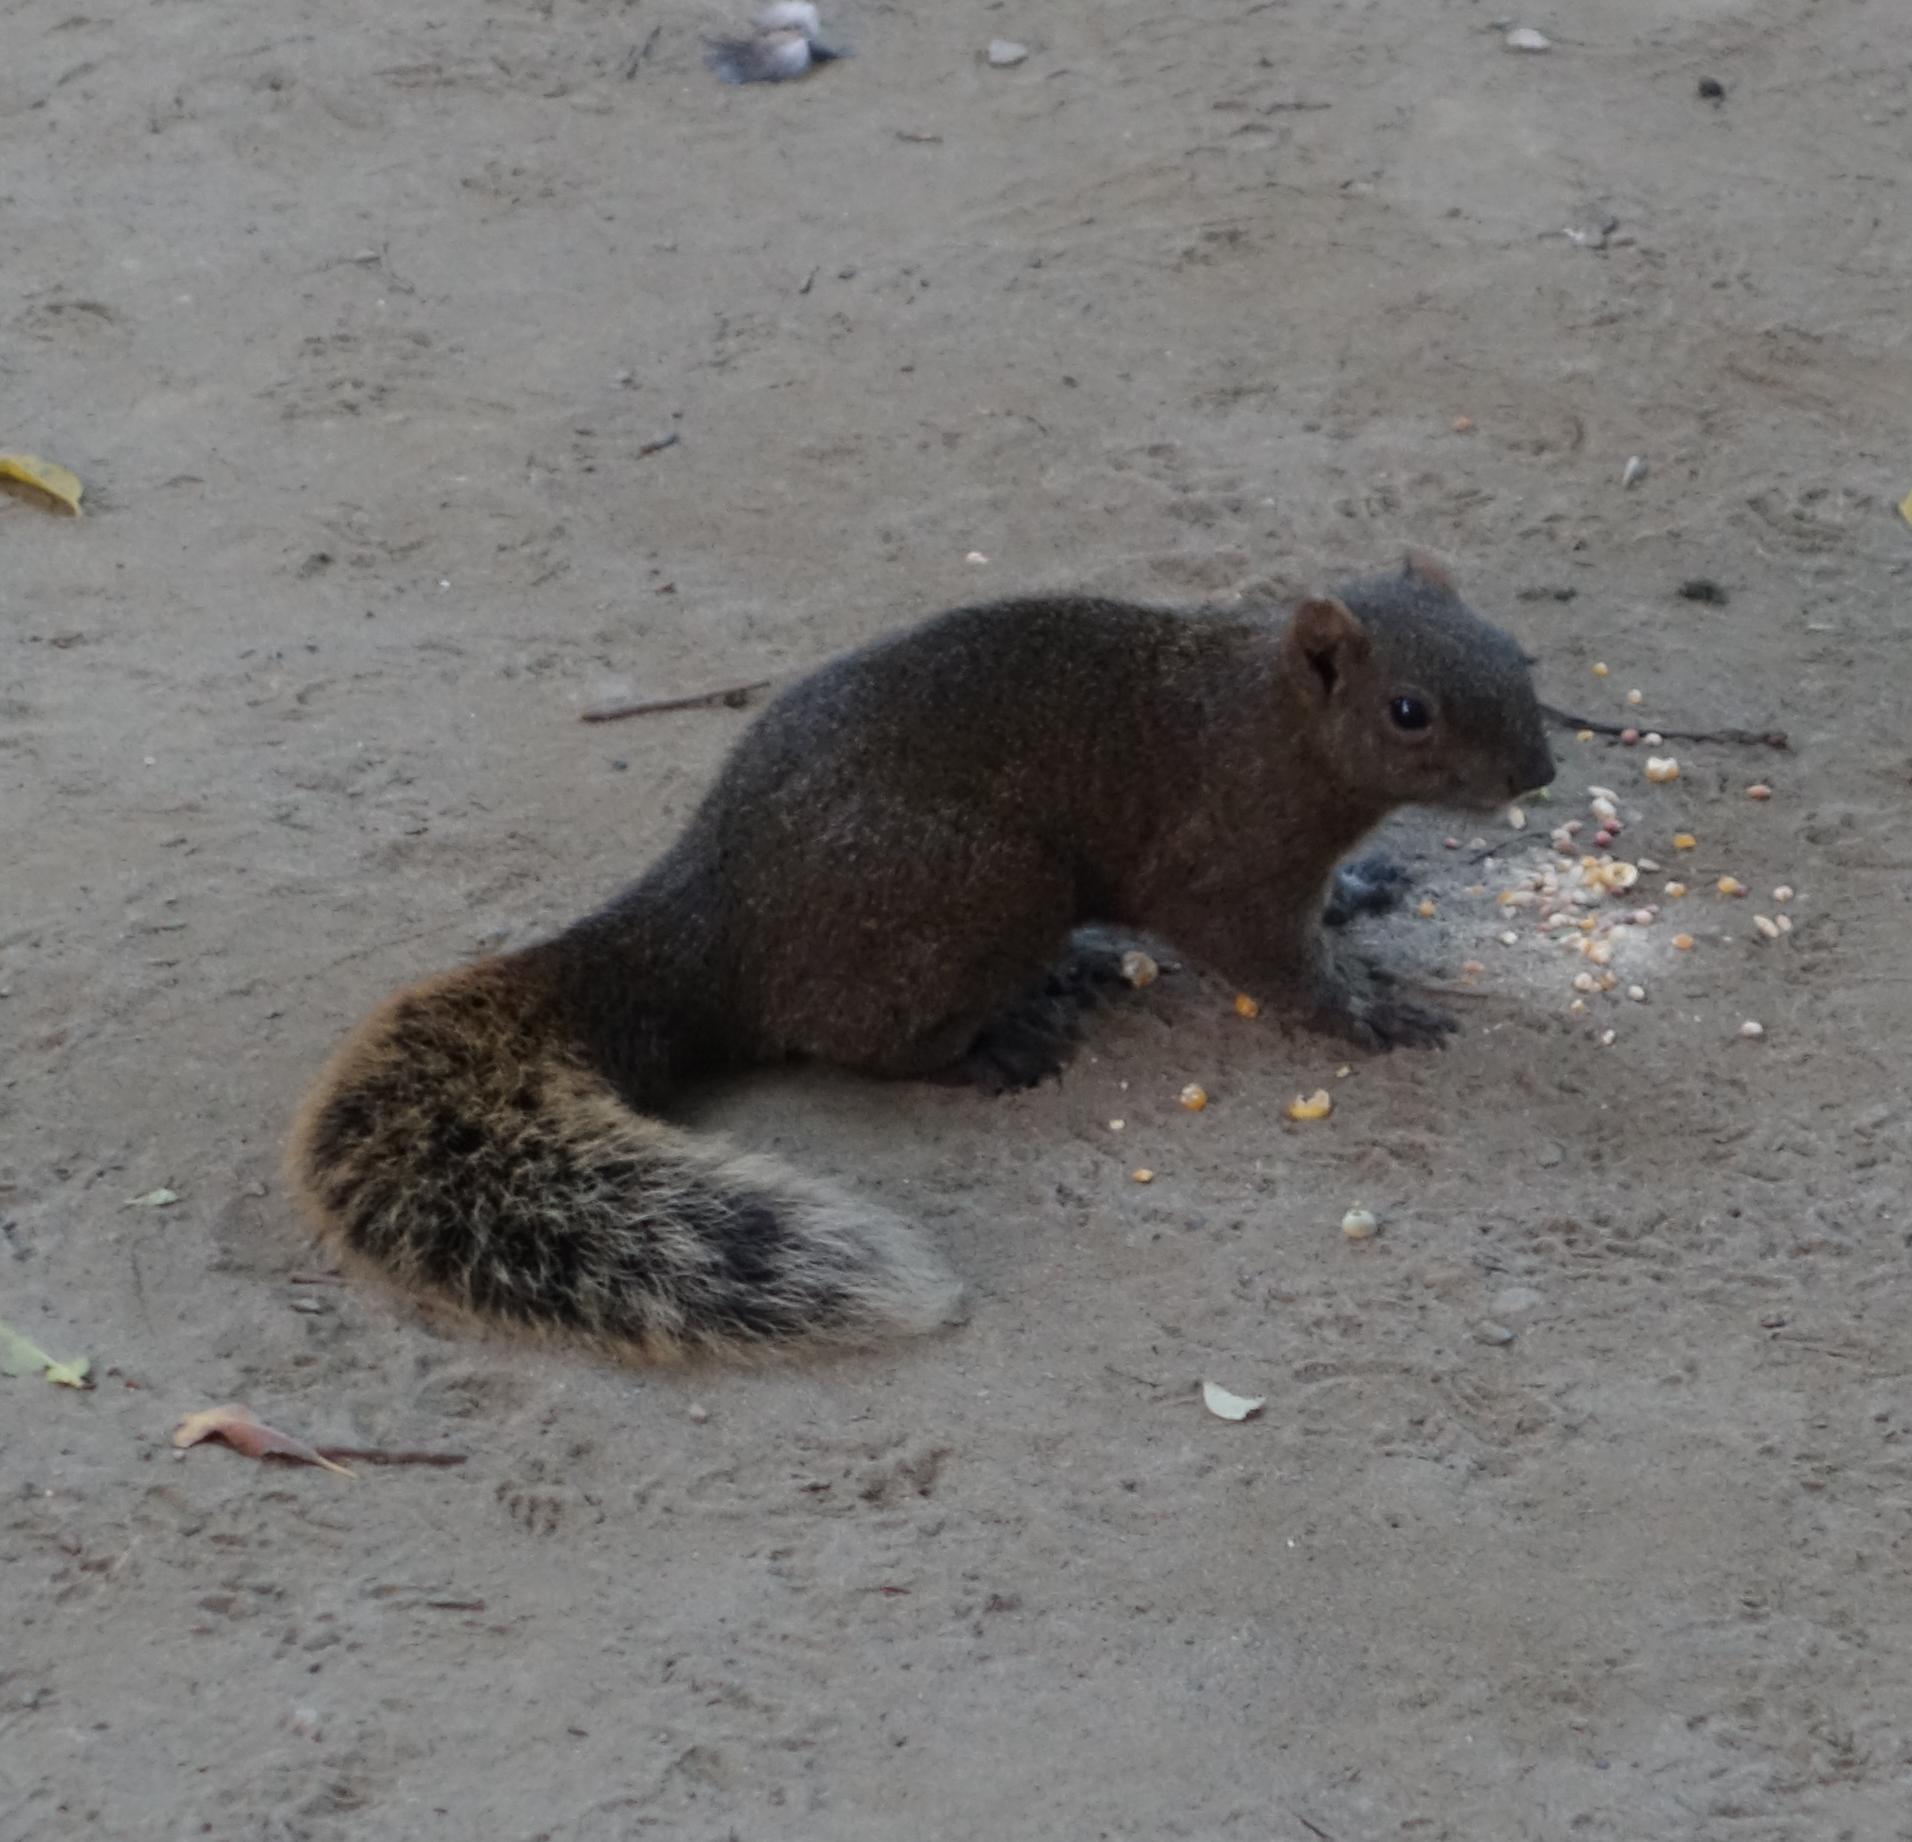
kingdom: Animalia
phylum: Chordata
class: Mammalia
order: Rodentia
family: Sciuridae
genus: Callosciurus
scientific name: Callosciurus erythraeus
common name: Pallas's squirrel
